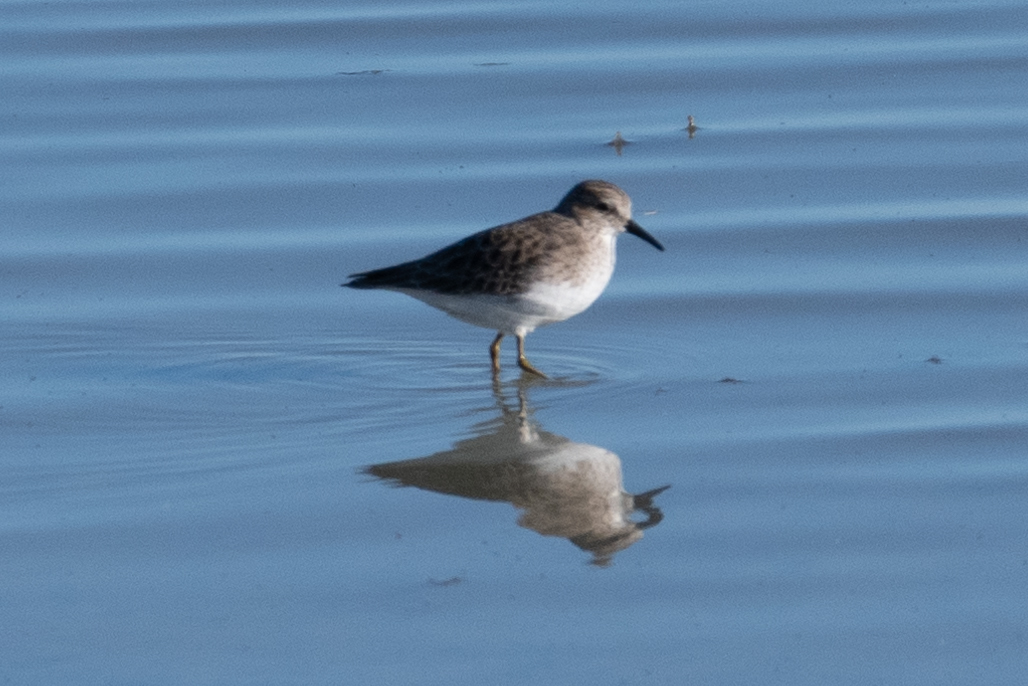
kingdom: Animalia
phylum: Chordata
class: Aves
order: Charadriiformes
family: Scolopacidae
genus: Calidris
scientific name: Calidris minutilla
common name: Least sandpiper
